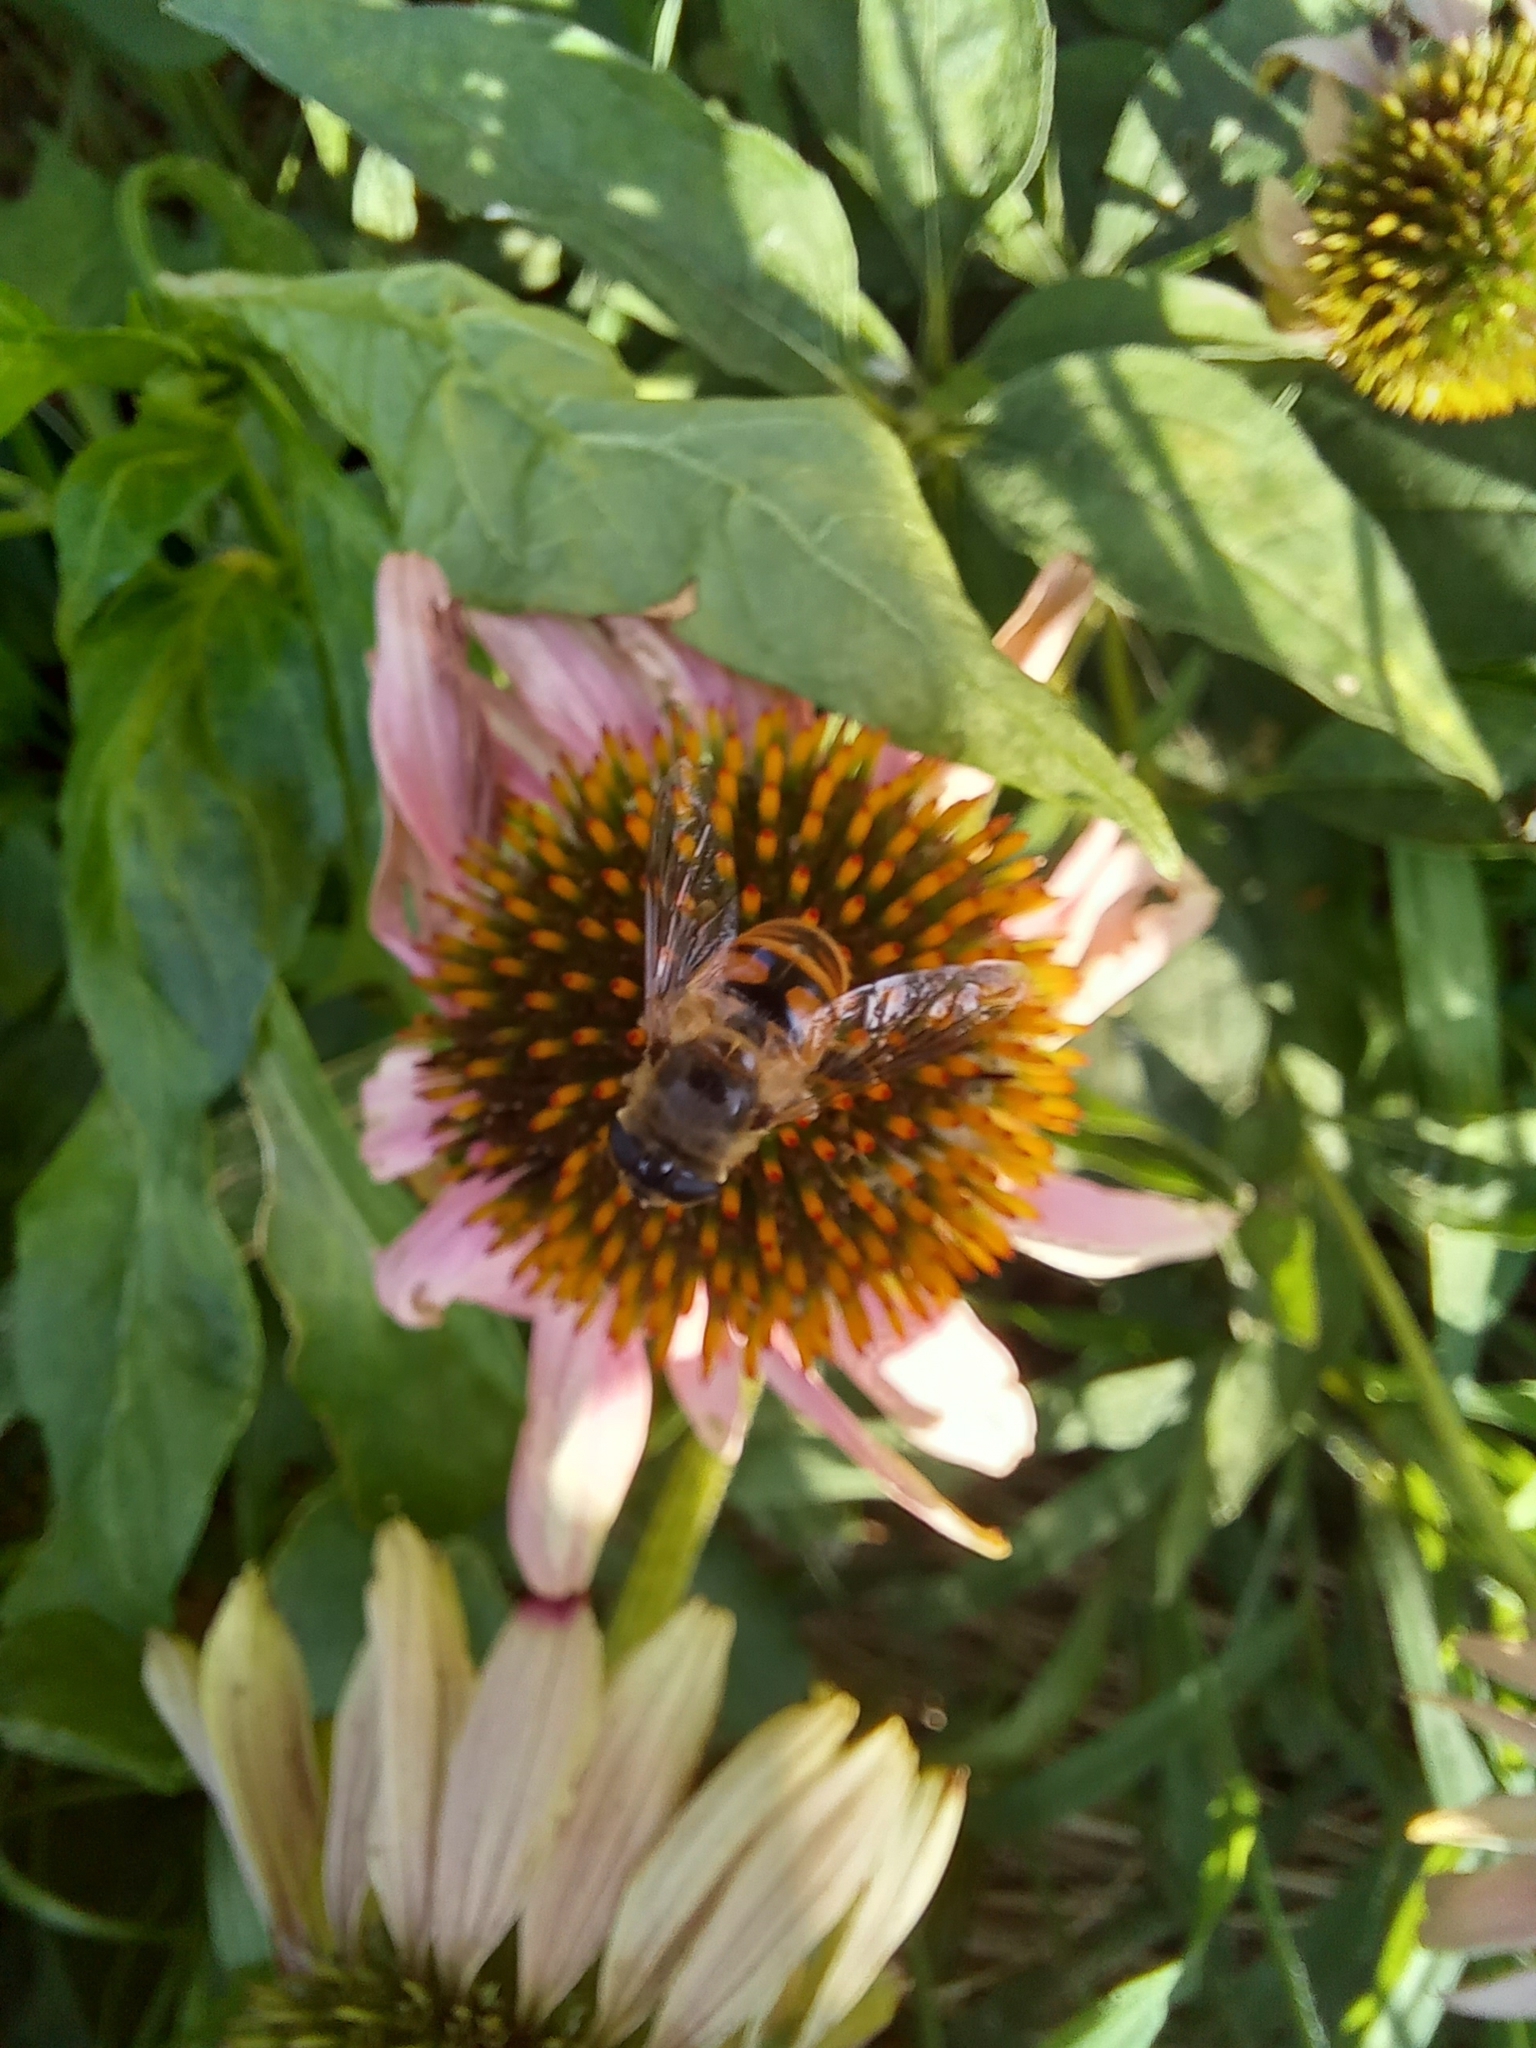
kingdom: Animalia
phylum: Arthropoda
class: Insecta
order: Diptera
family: Syrphidae
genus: Eristalis
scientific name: Eristalis tenax
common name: Drone fly
